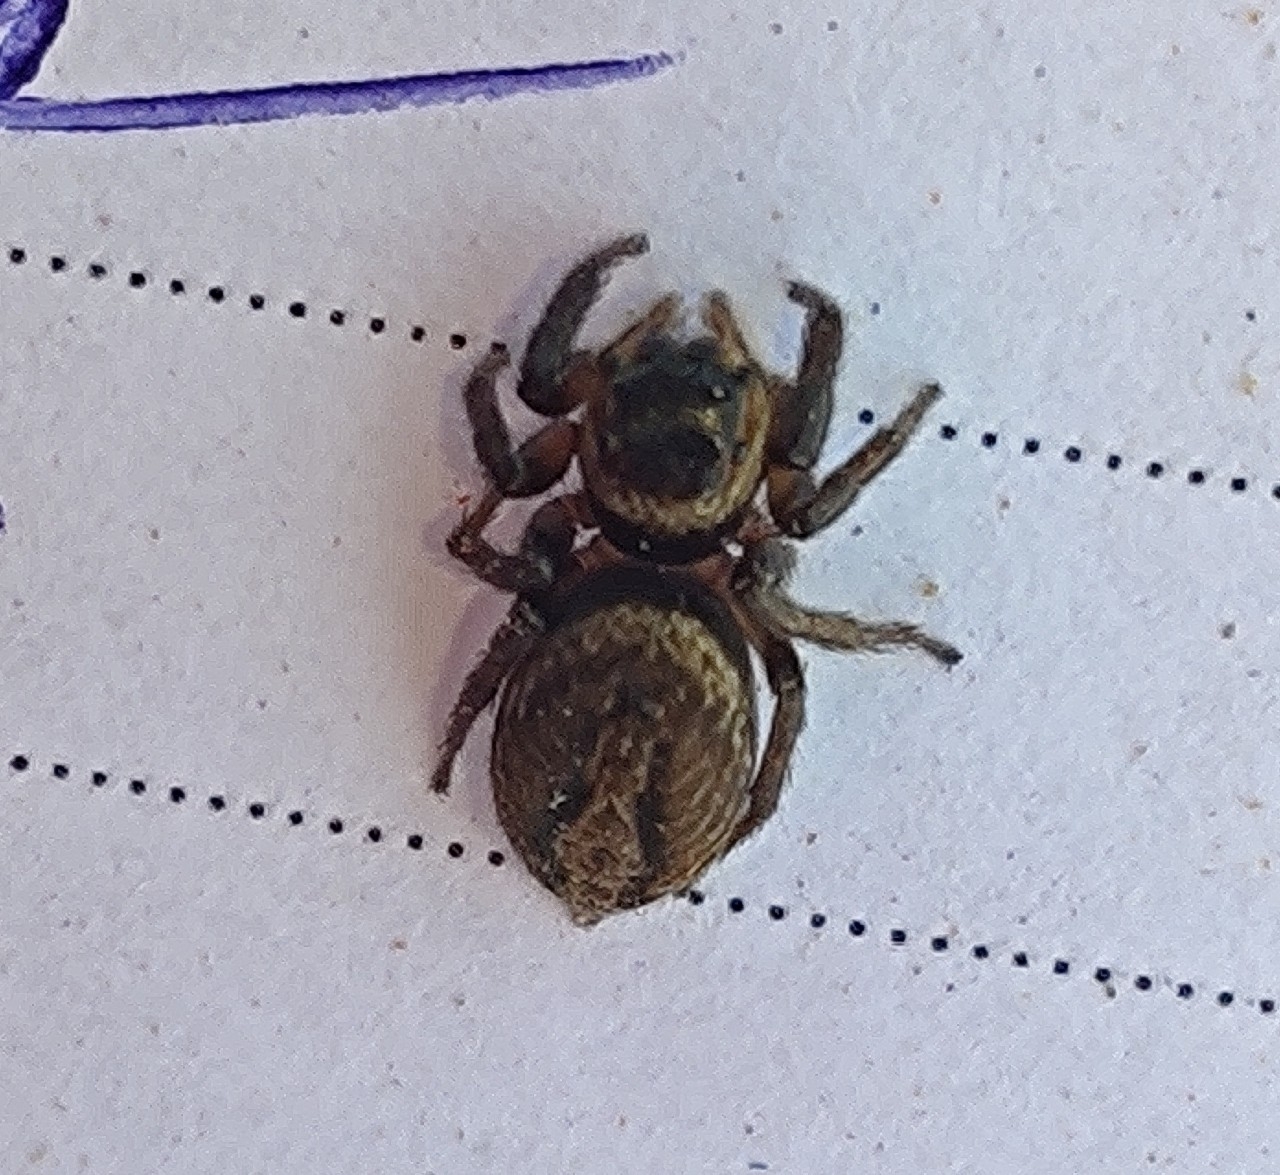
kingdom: Animalia
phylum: Arthropoda
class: Arachnida
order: Araneae
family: Salticidae
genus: Hasarius
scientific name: Hasarius adansoni
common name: Jumping spider
